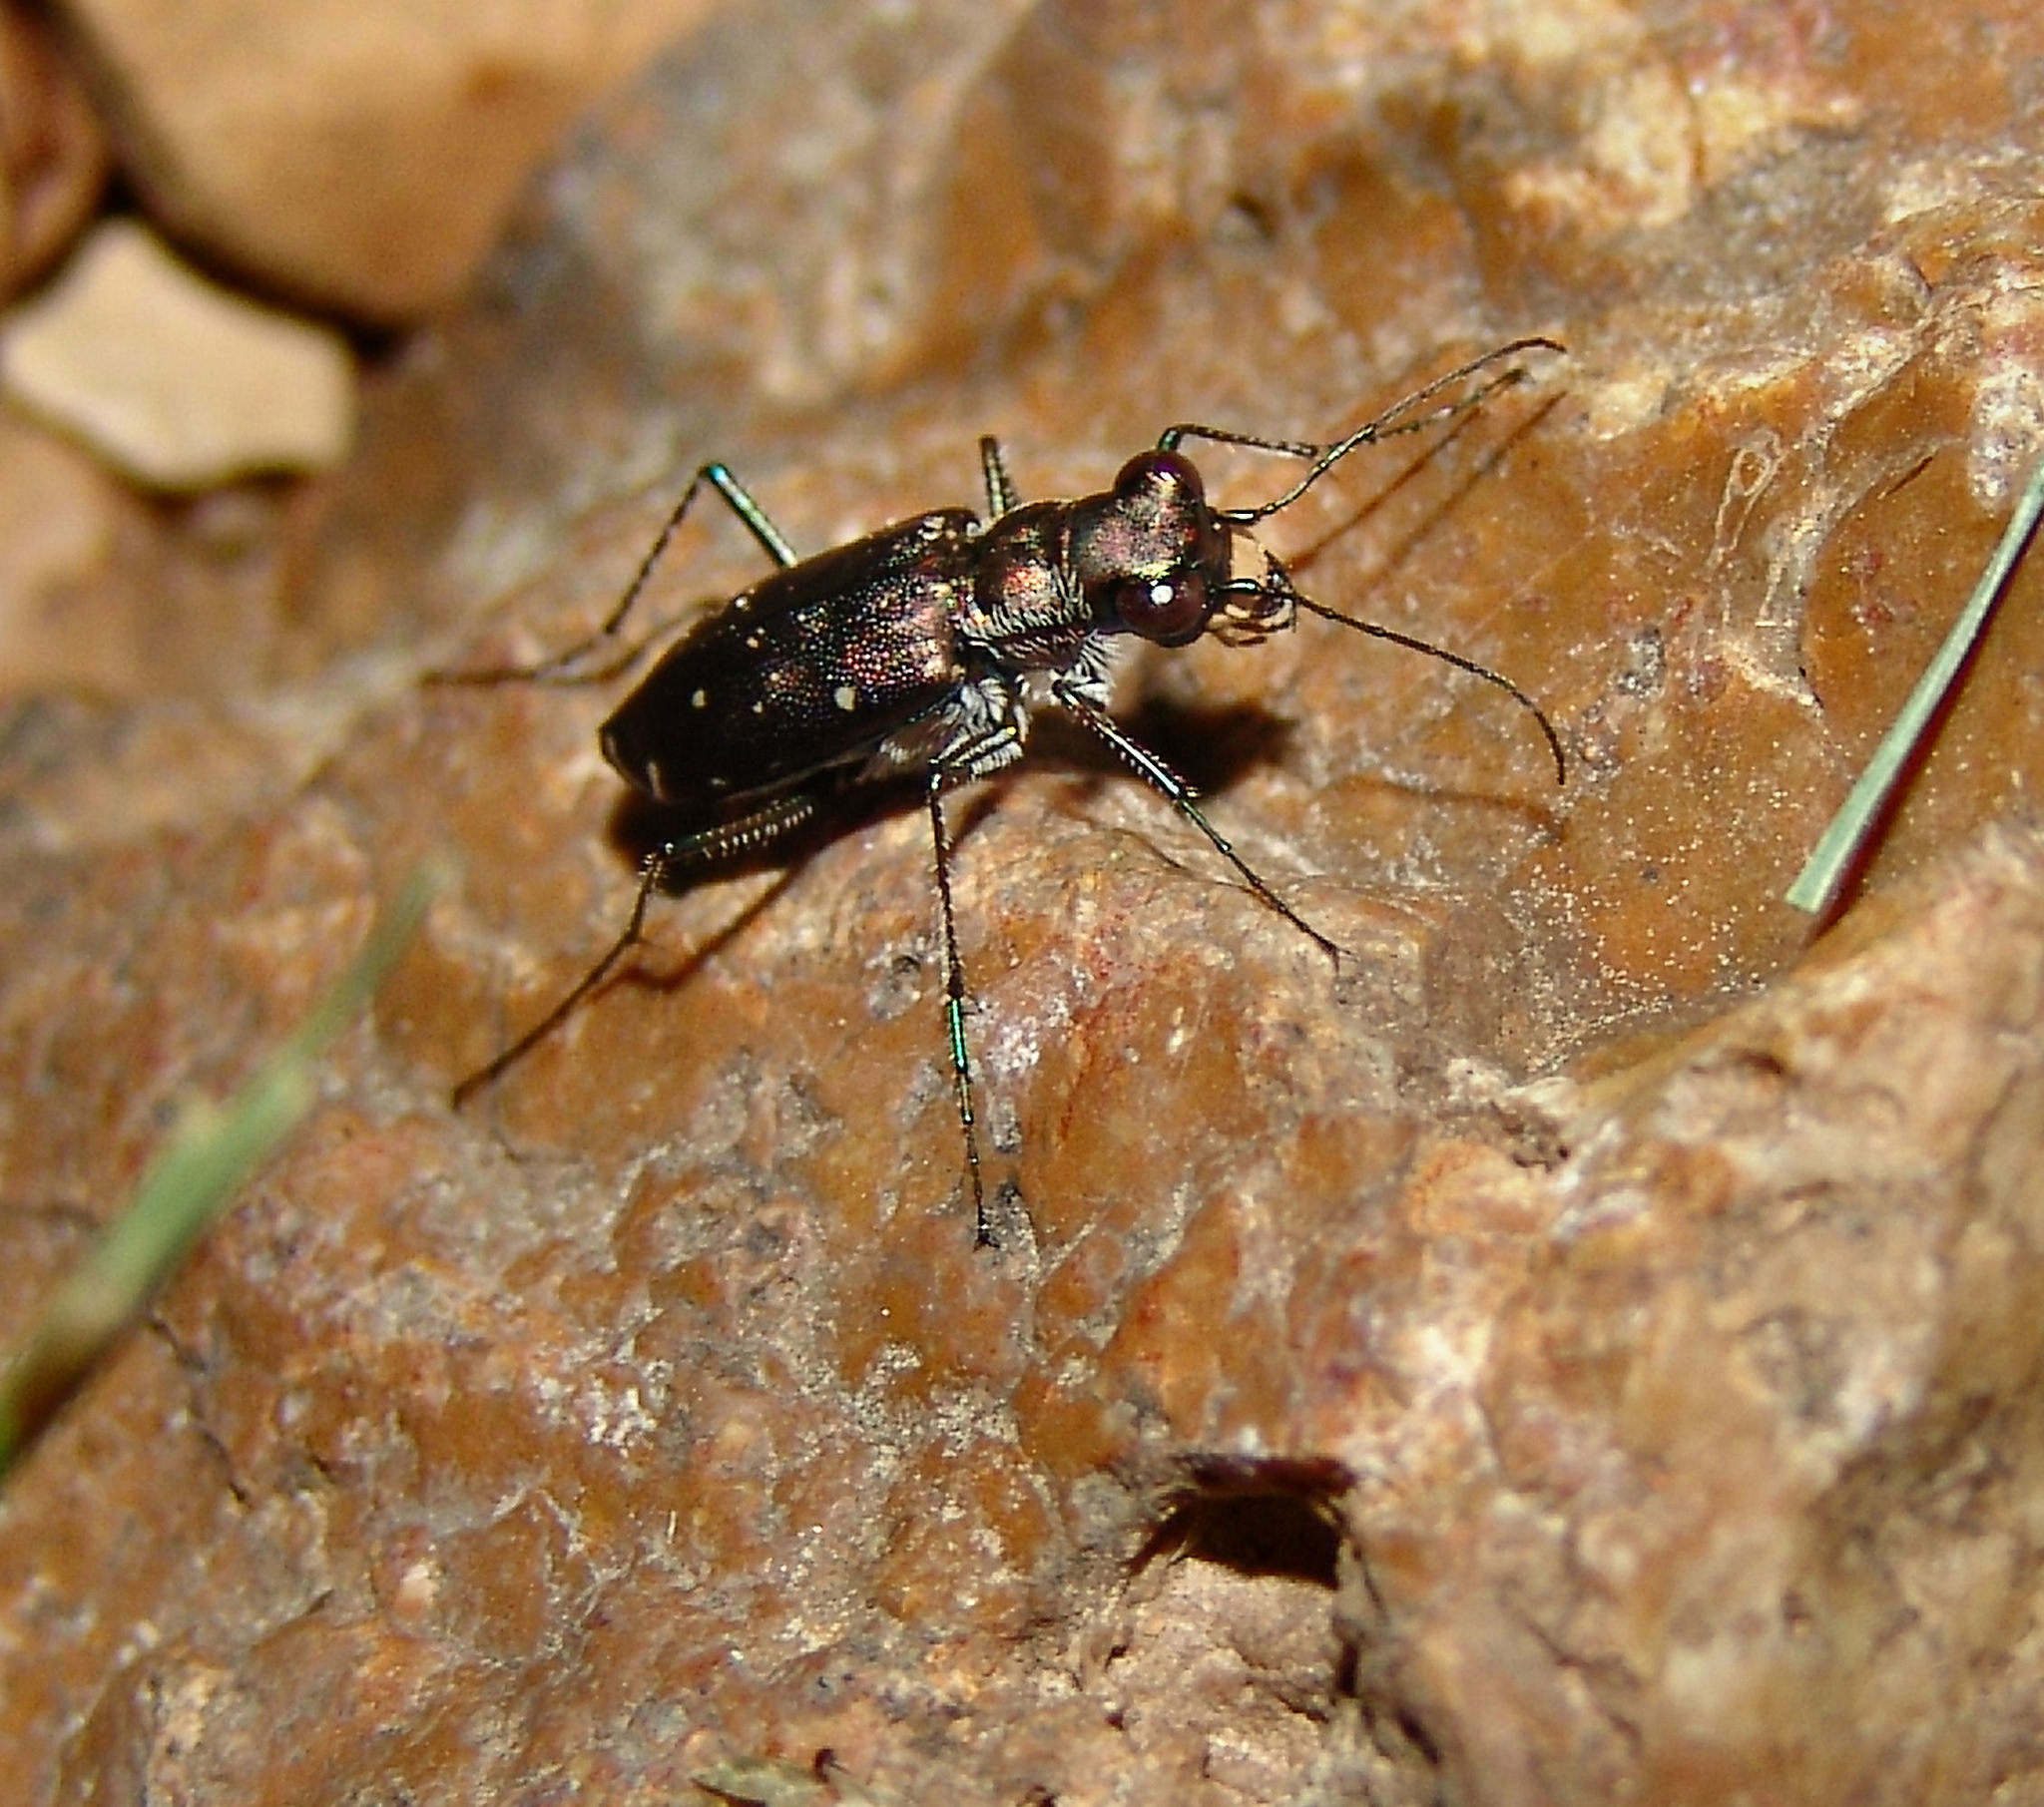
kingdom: Animalia
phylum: Arthropoda
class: Insecta
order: Coleoptera
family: Carabidae
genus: Cicindela
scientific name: Cicindela punctulata
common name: Punctured tiger beetle
